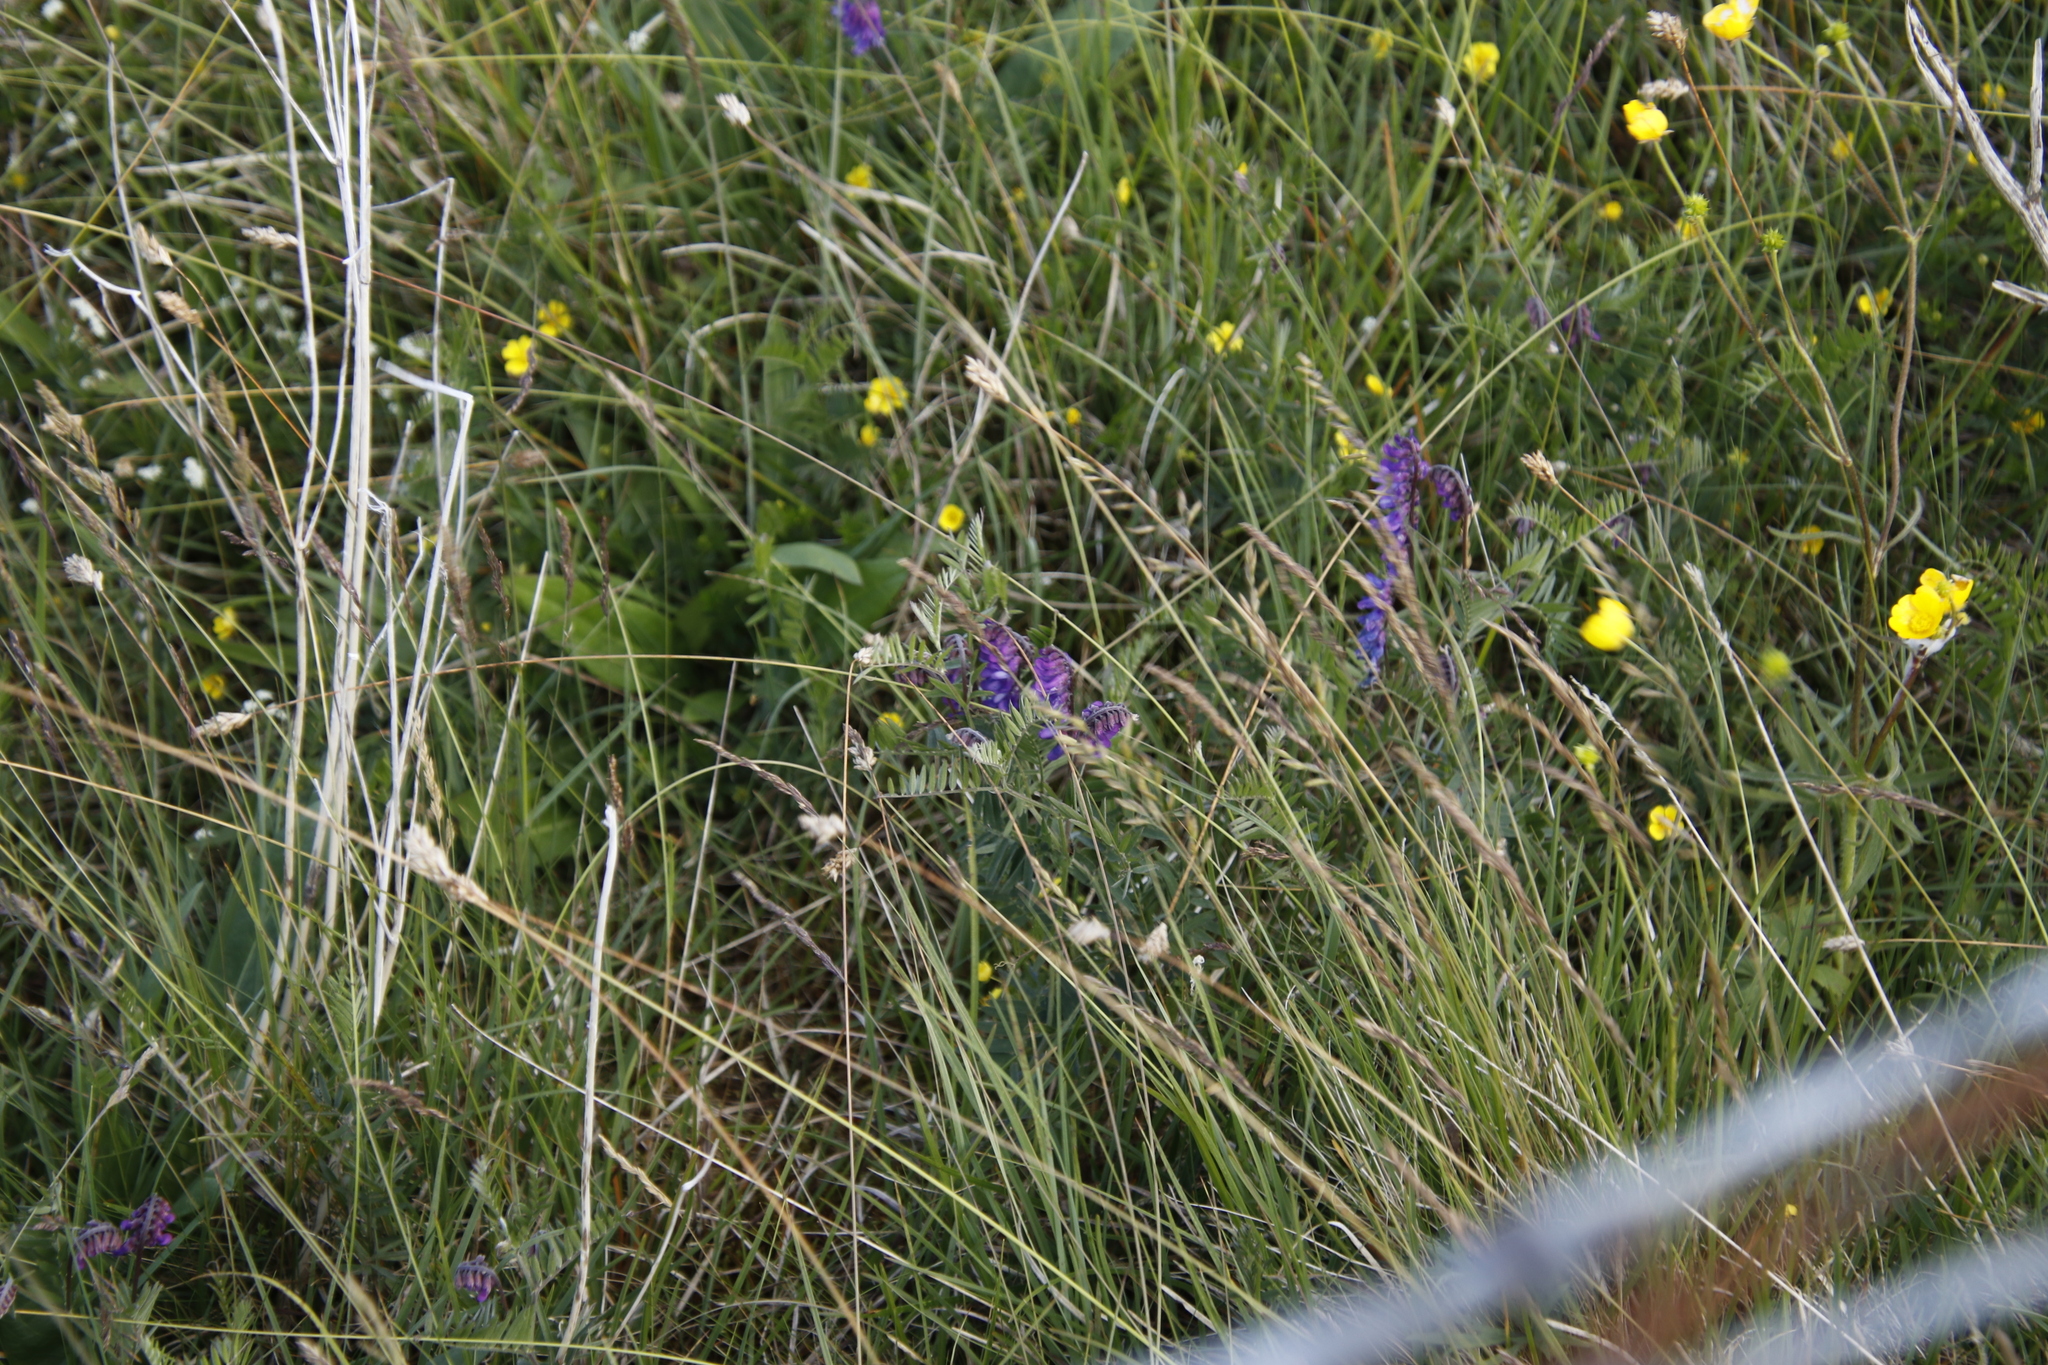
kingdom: Plantae
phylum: Tracheophyta
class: Magnoliopsida
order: Fabales
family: Fabaceae
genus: Vicia
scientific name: Vicia cracca
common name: Bird vetch
